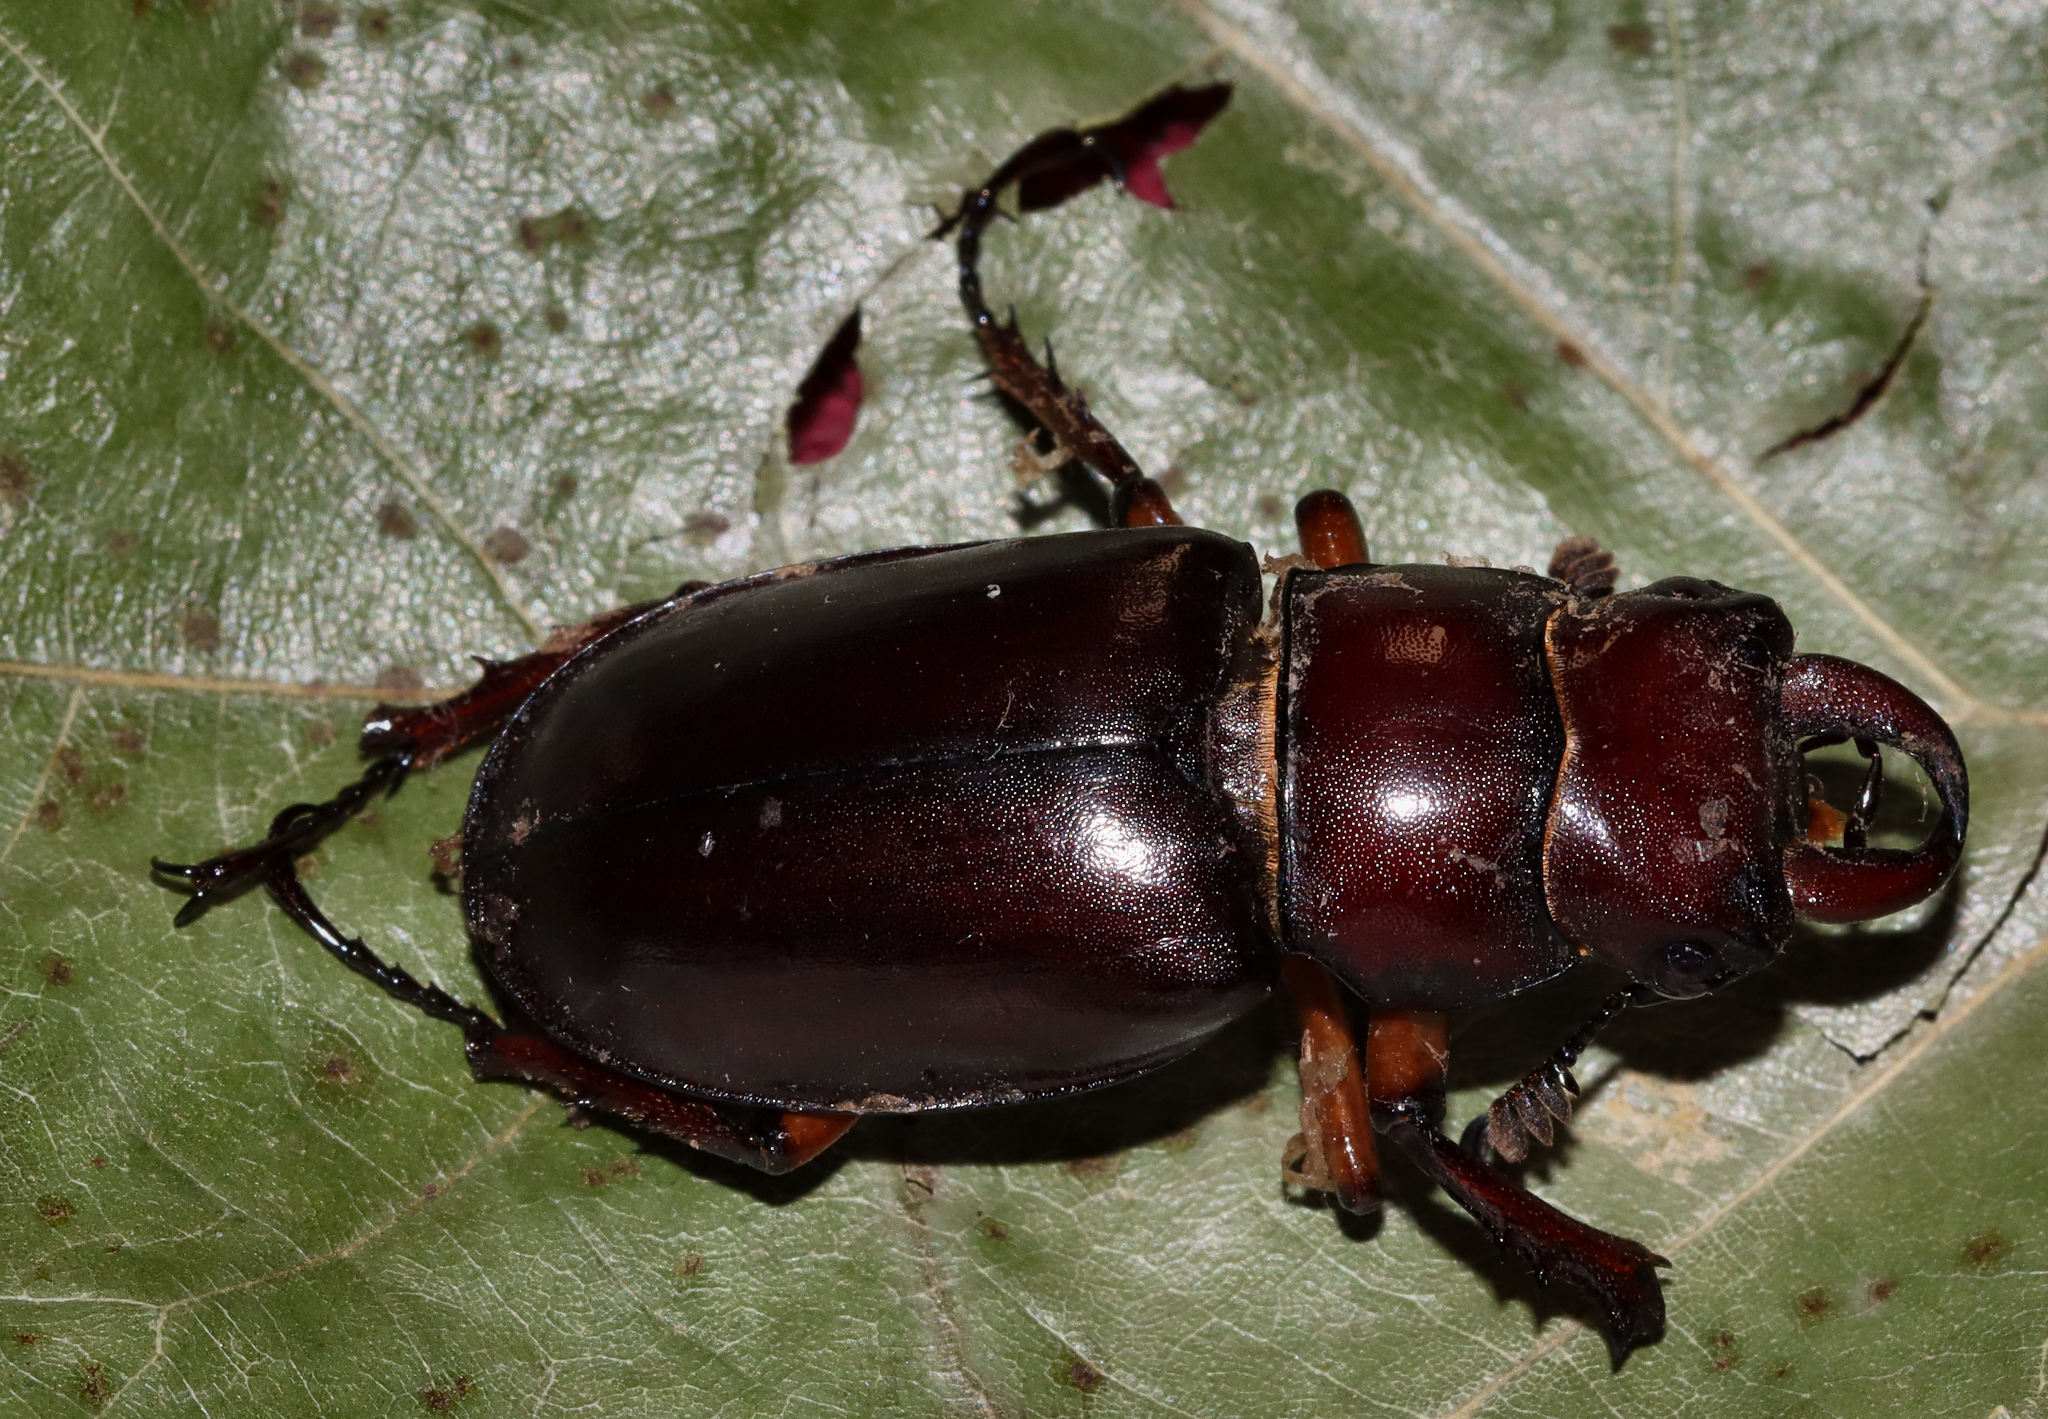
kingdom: Animalia
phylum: Arthropoda
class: Insecta
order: Coleoptera
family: Lucanidae
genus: Lucanus
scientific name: Lucanus capreolus
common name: Stag beetle
